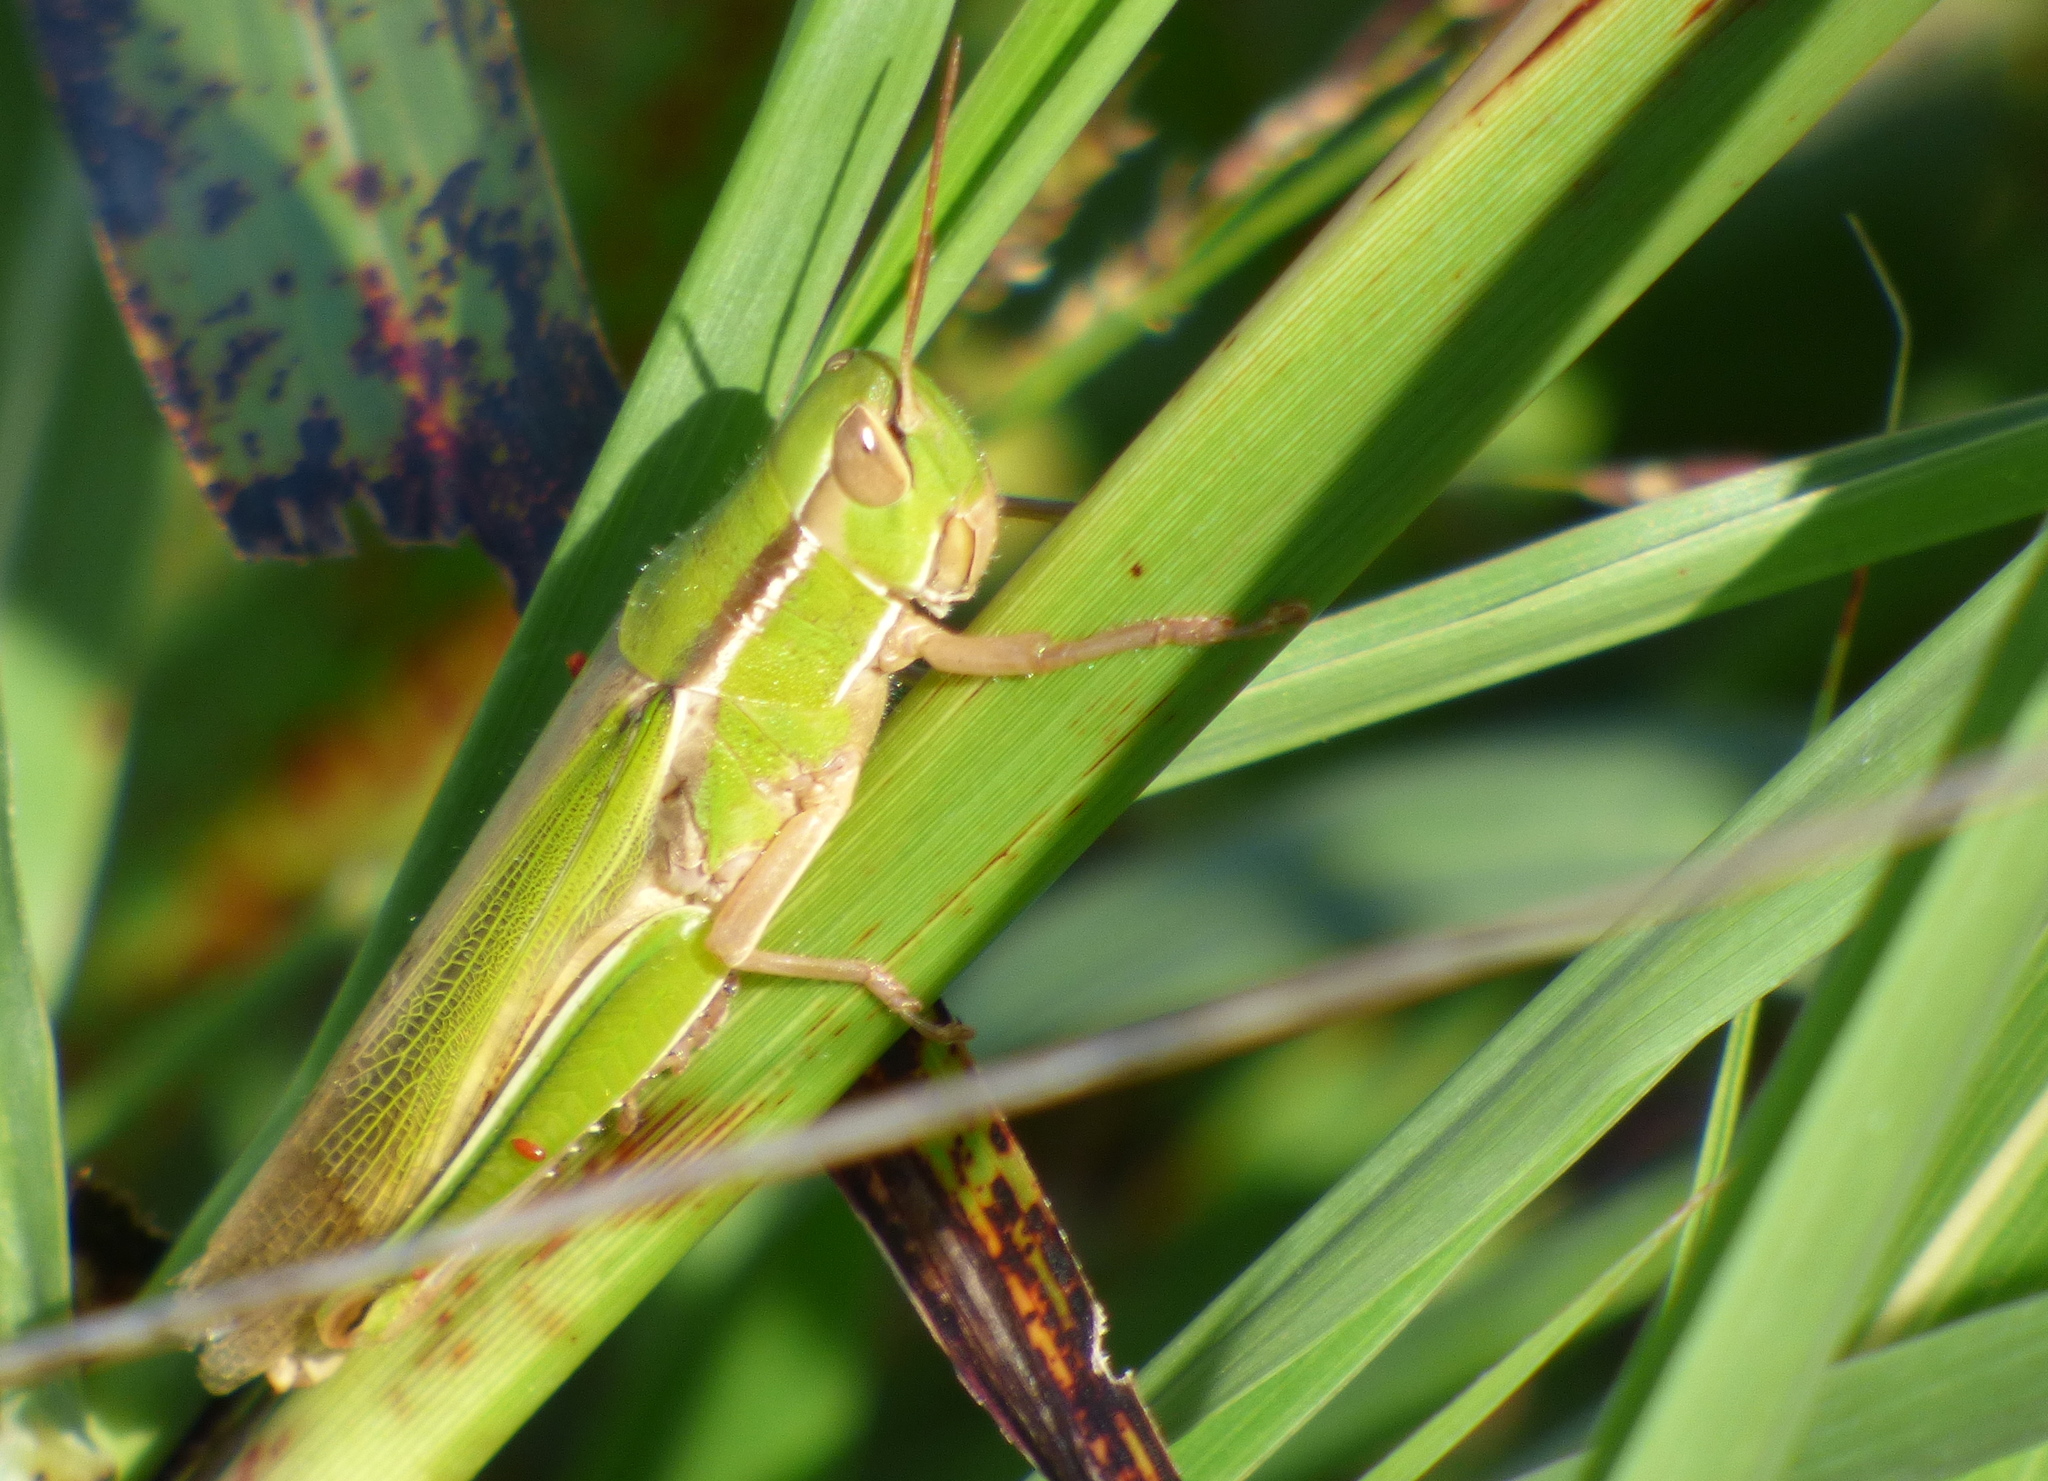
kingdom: Animalia
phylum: Arthropoda
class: Insecta
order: Orthoptera
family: Acrididae
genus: Aleuas
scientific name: Aleuas lineatus
